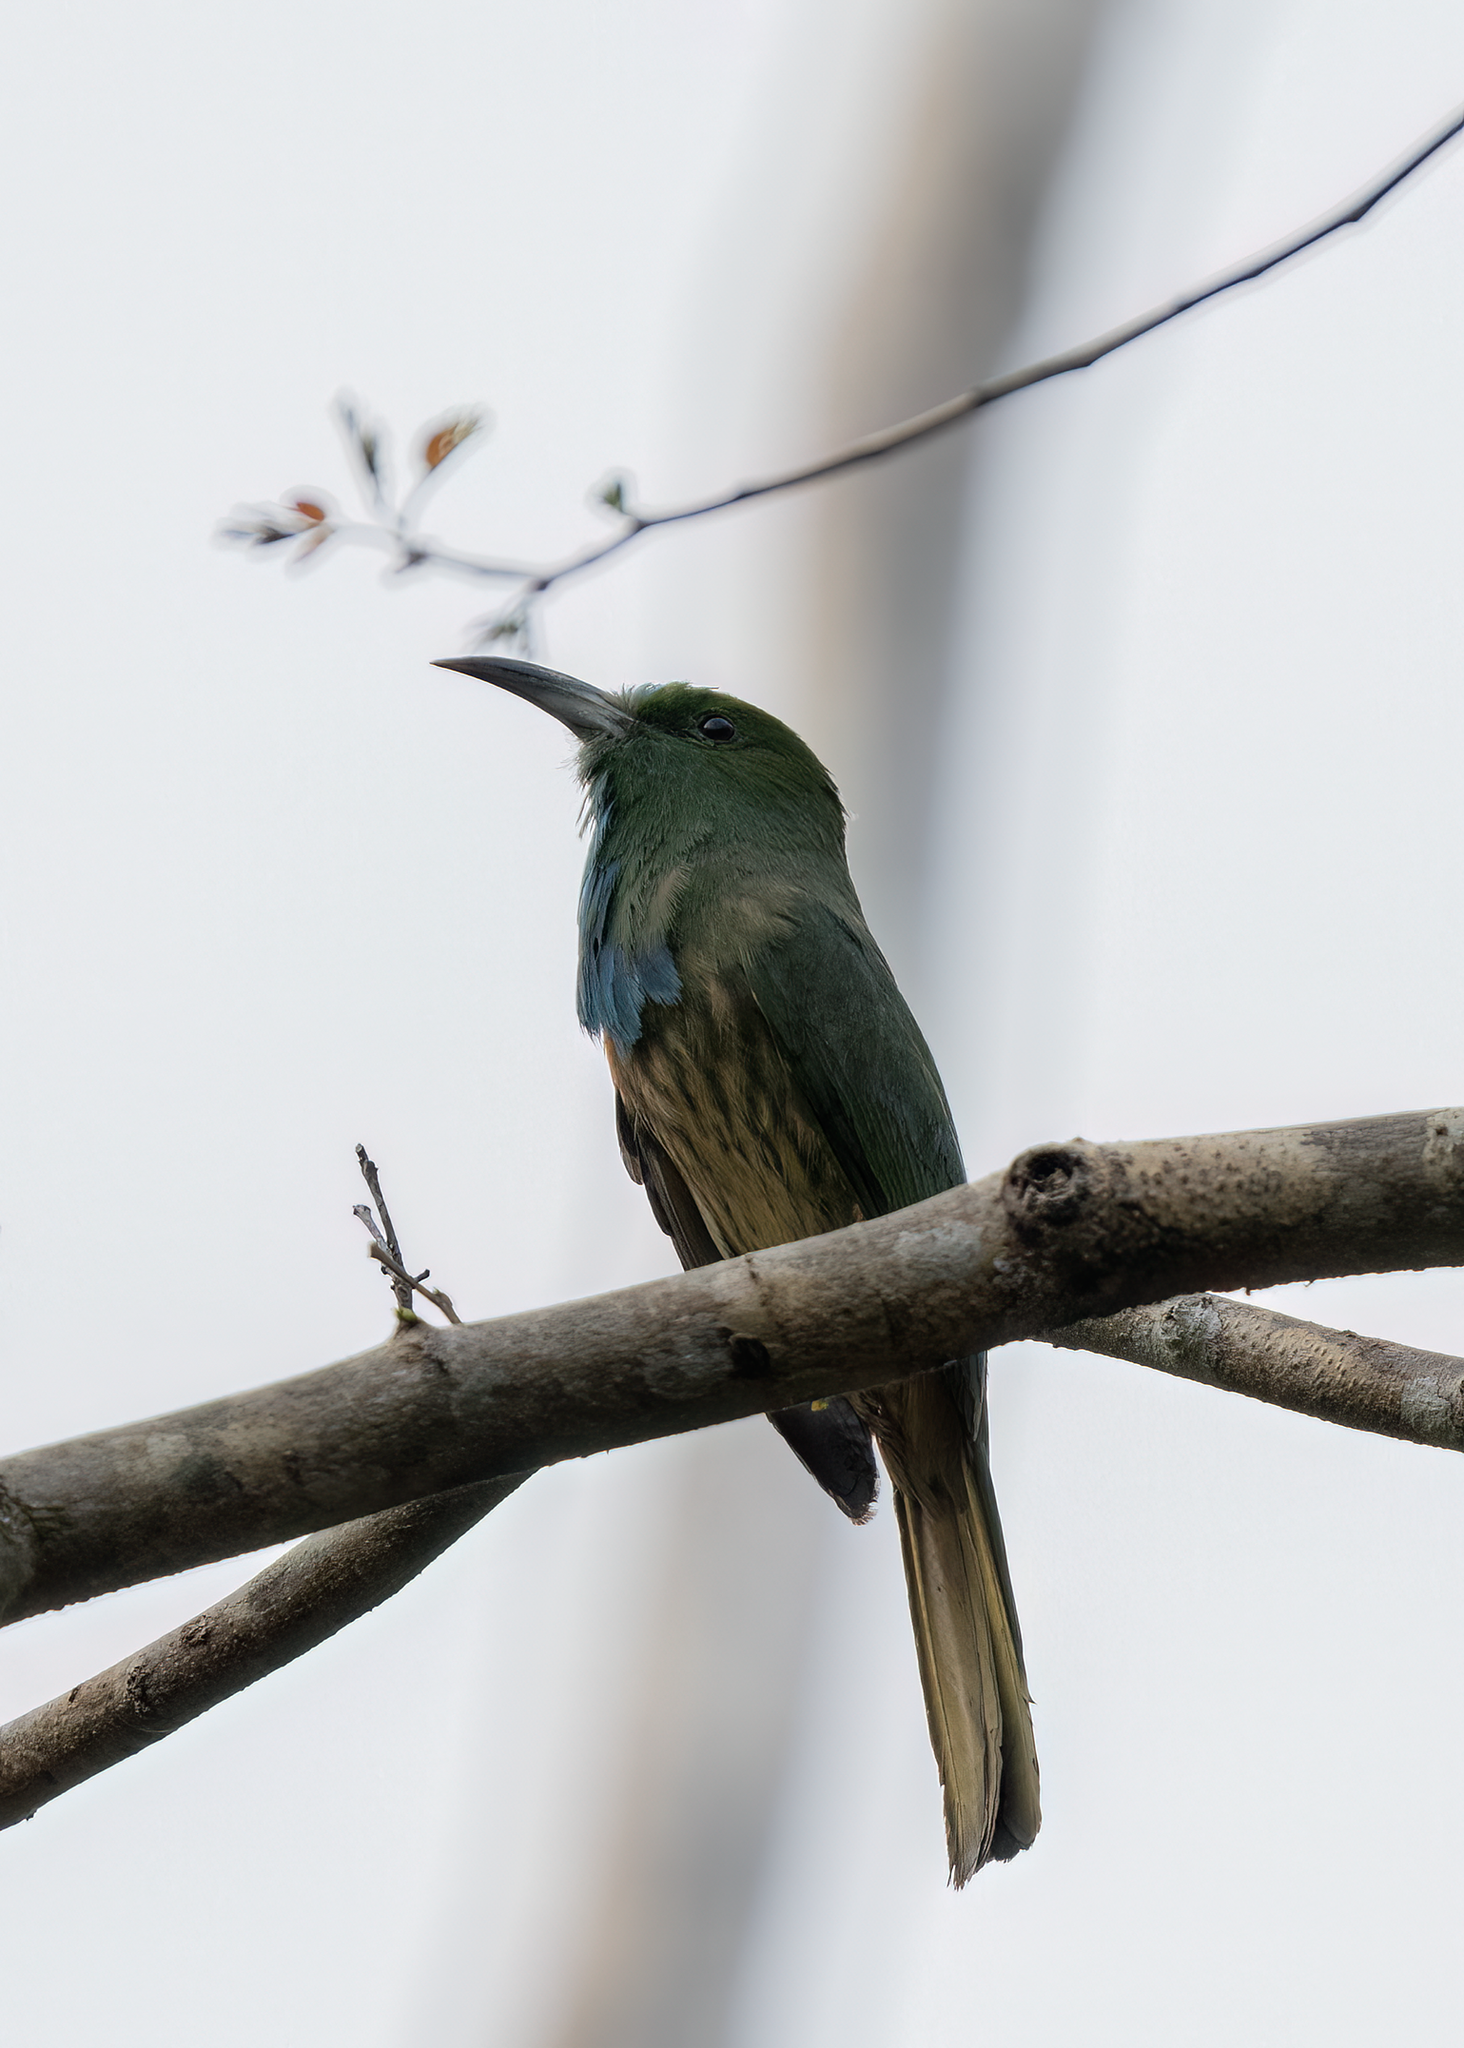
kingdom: Animalia
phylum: Chordata
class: Aves
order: Coraciiformes
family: Meropidae
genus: Nyctyornis
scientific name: Nyctyornis athertoni
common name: Blue-bearded bee-eater
